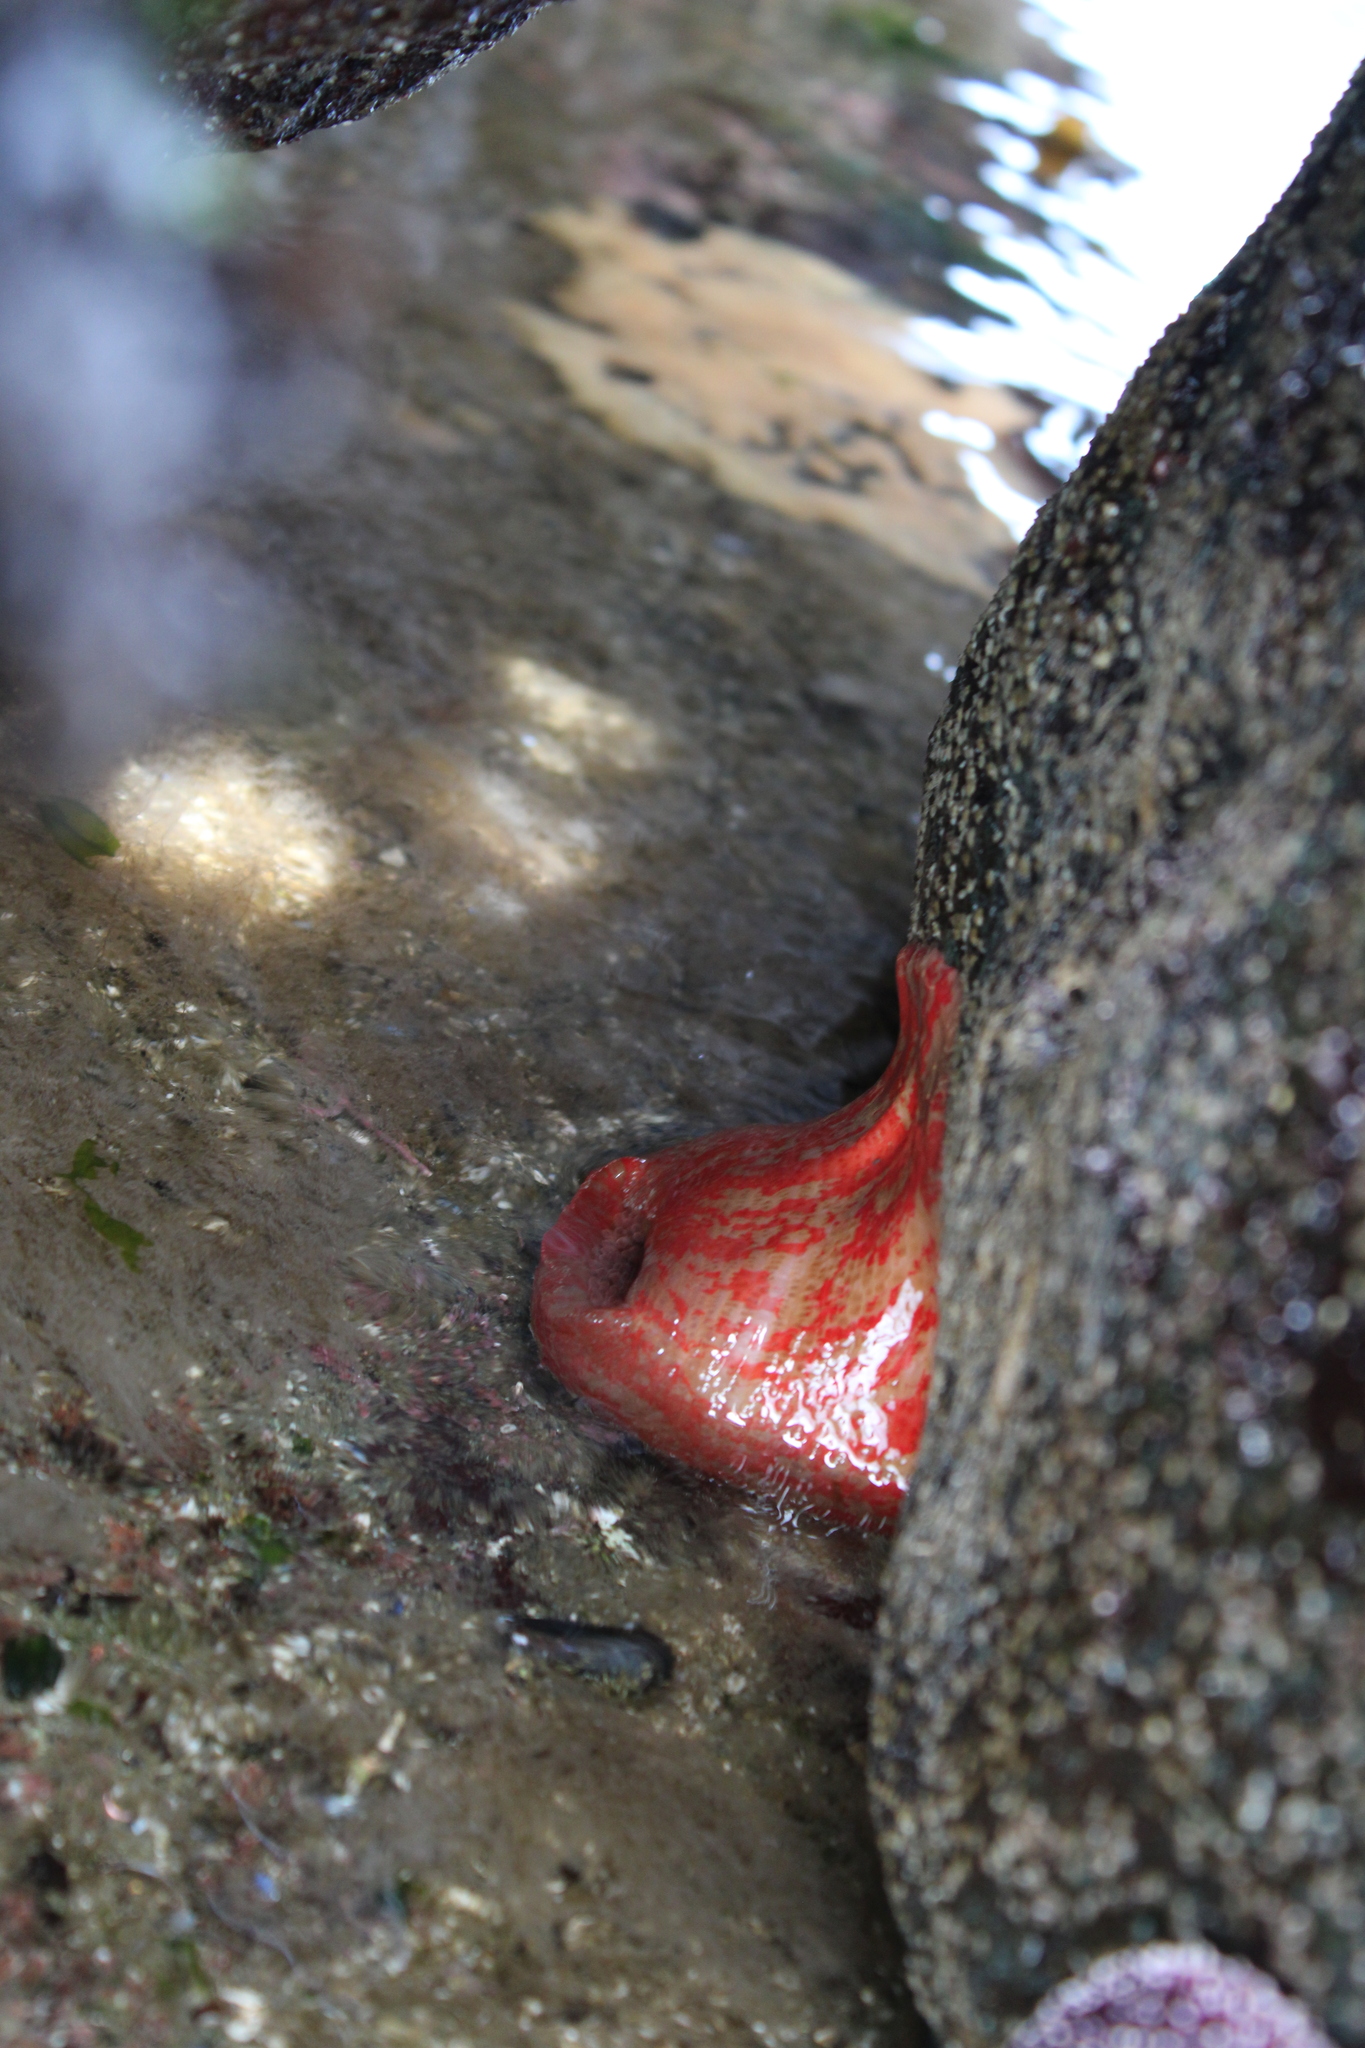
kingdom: Animalia
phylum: Cnidaria
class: Anthozoa
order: Actiniaria
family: Actiniidae
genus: Urticina
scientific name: Urticina grebelnyi
